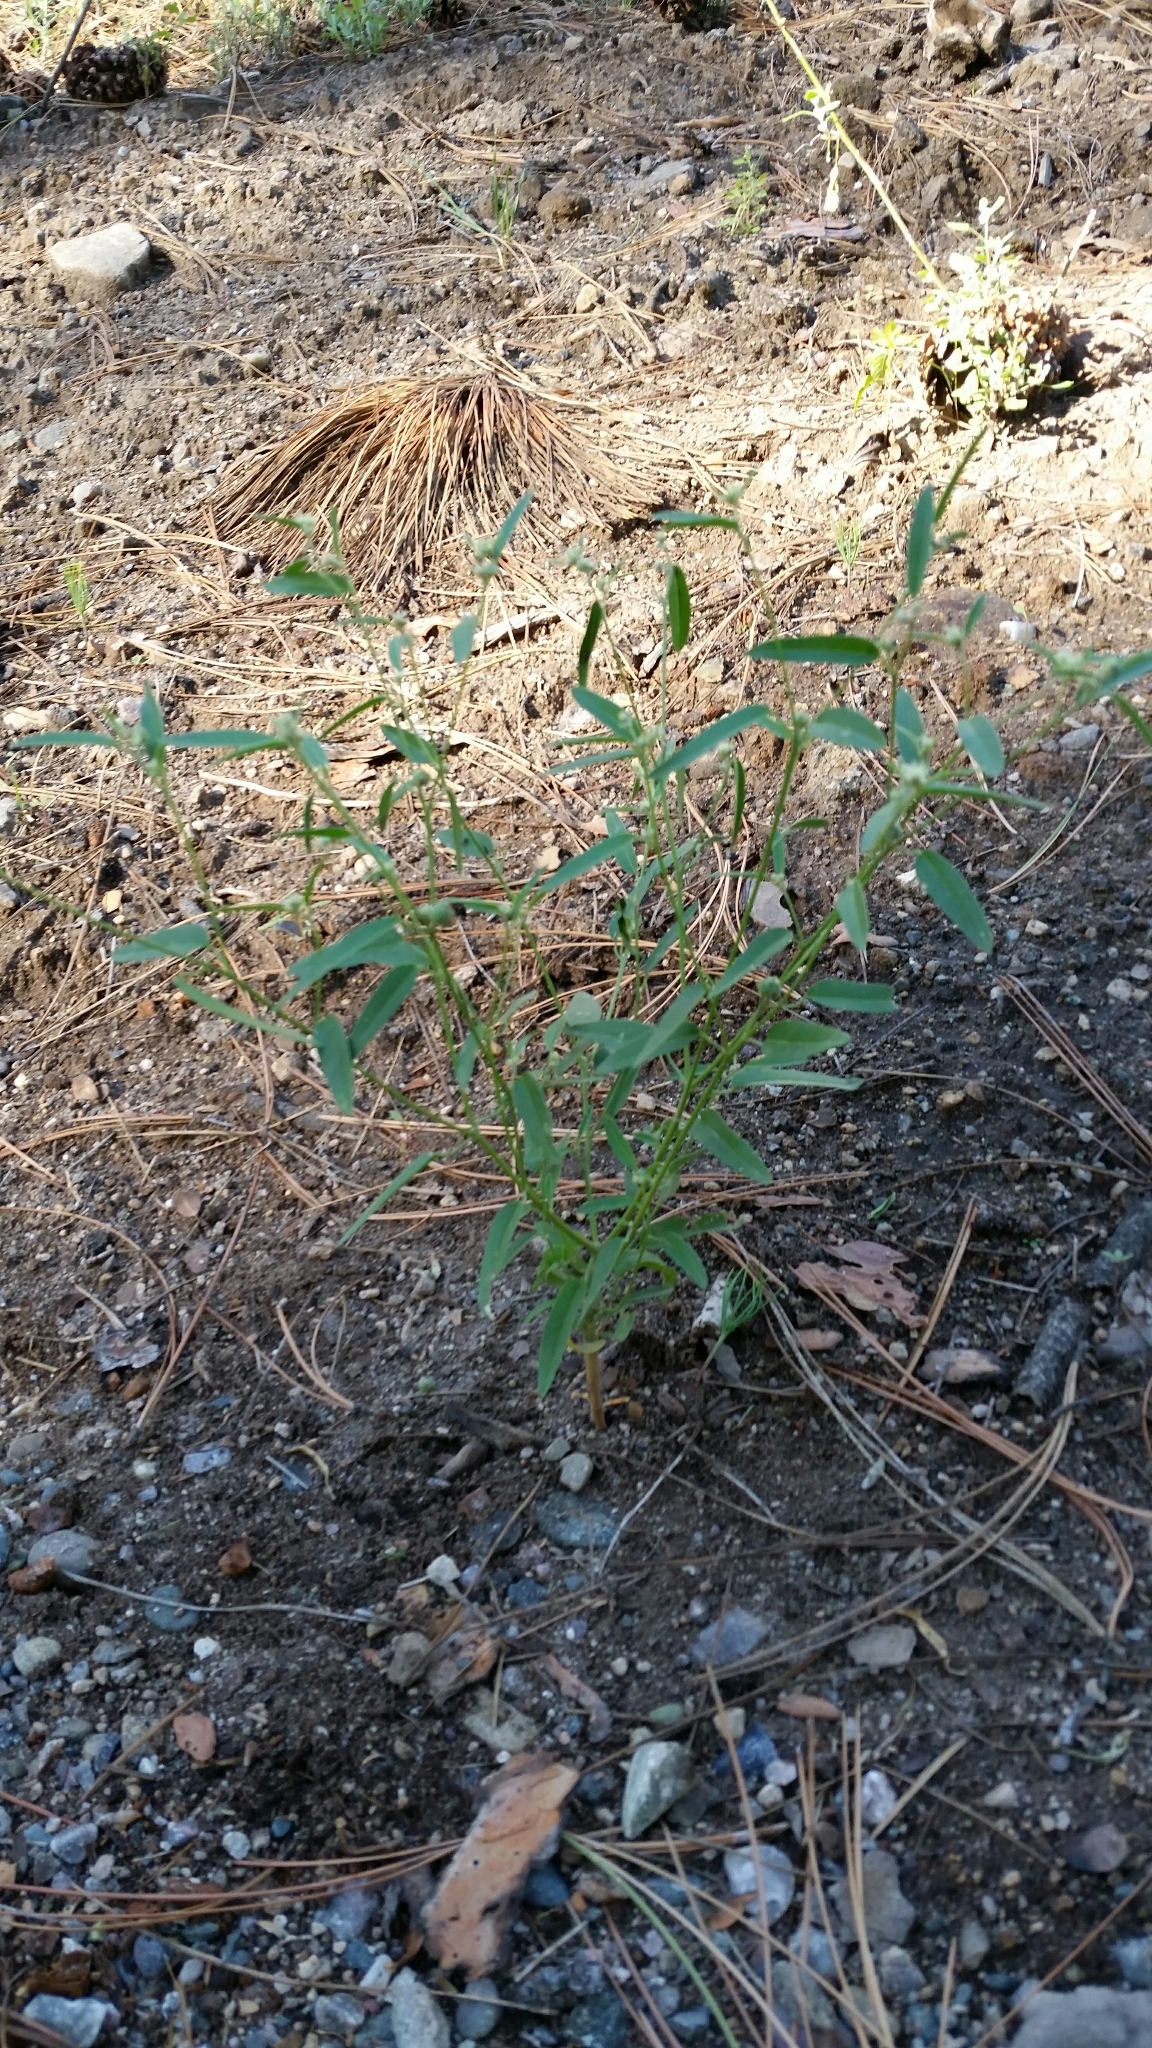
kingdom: Plantae
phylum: Tracheophyta
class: Magnoliopsida
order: Malpighiales
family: Euphorbiaceae
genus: Croton
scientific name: Croton texensis
